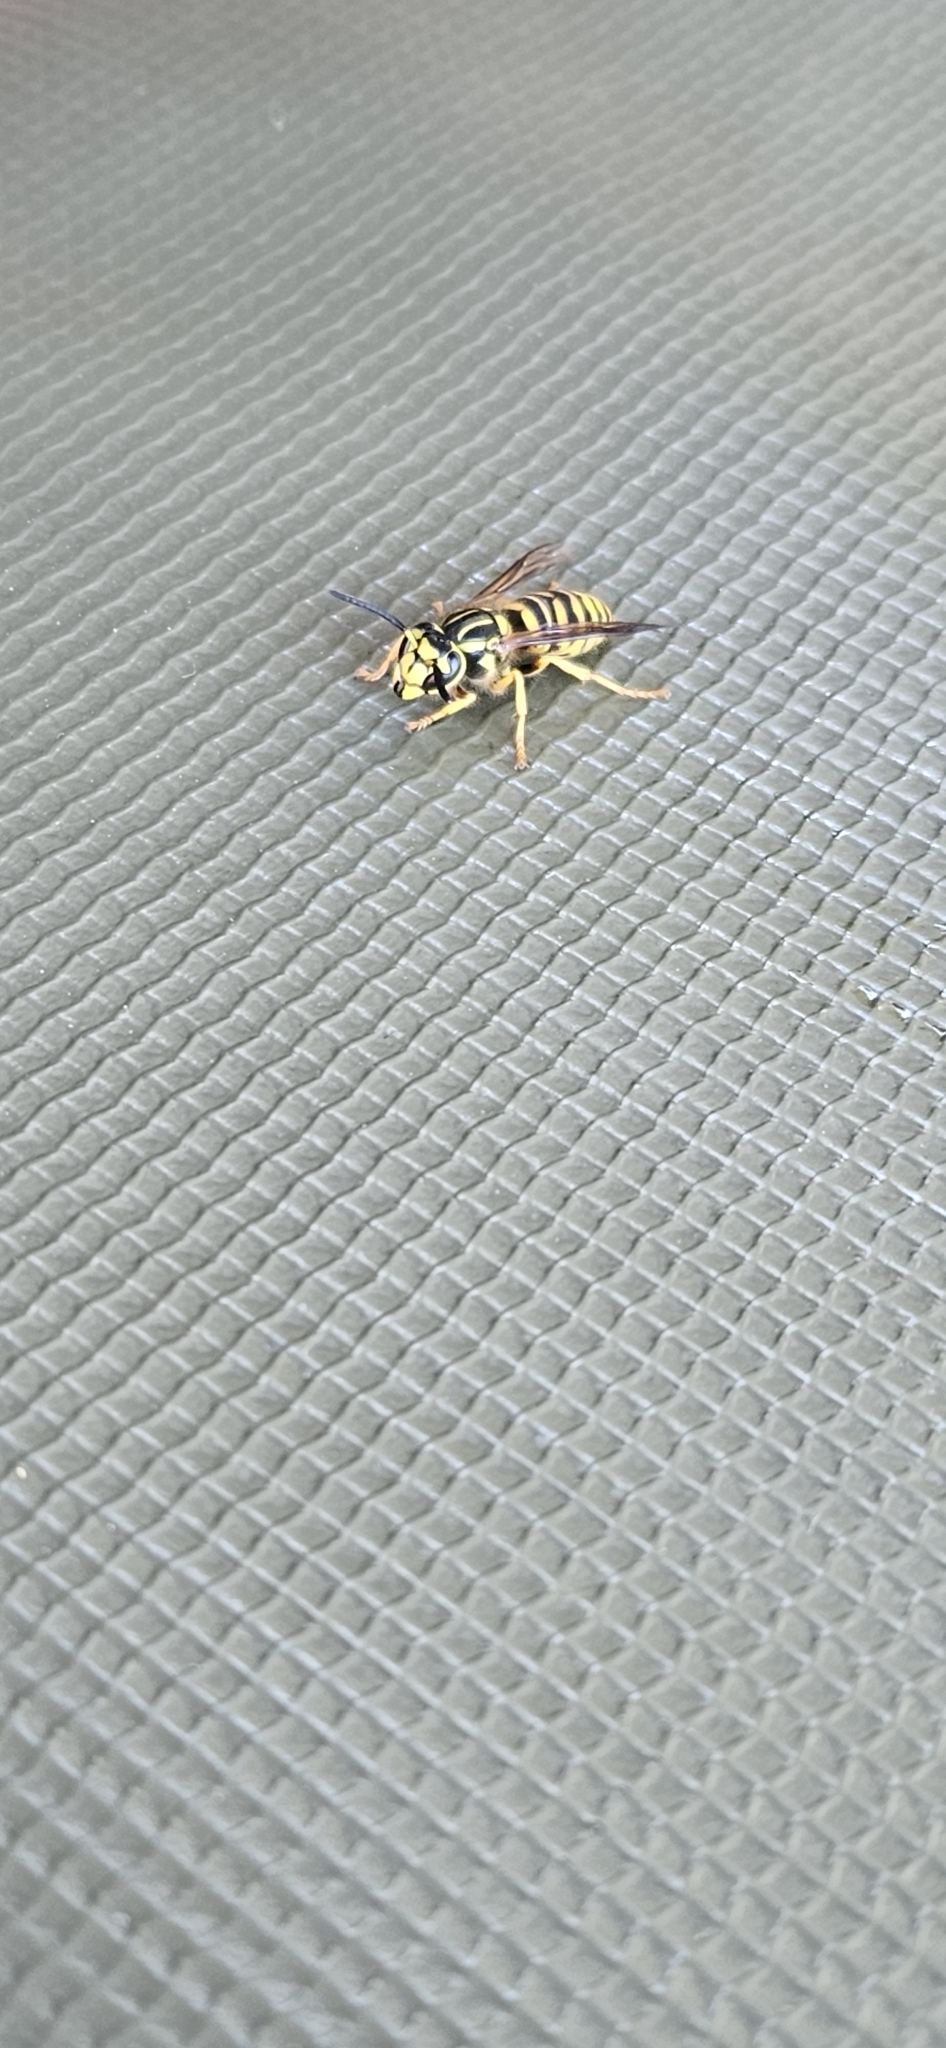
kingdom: Animalia
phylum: Arthropoda
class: Insecta
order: Hymenoptera
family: Vespidae
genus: Vespula
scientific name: Vespula squamosa
